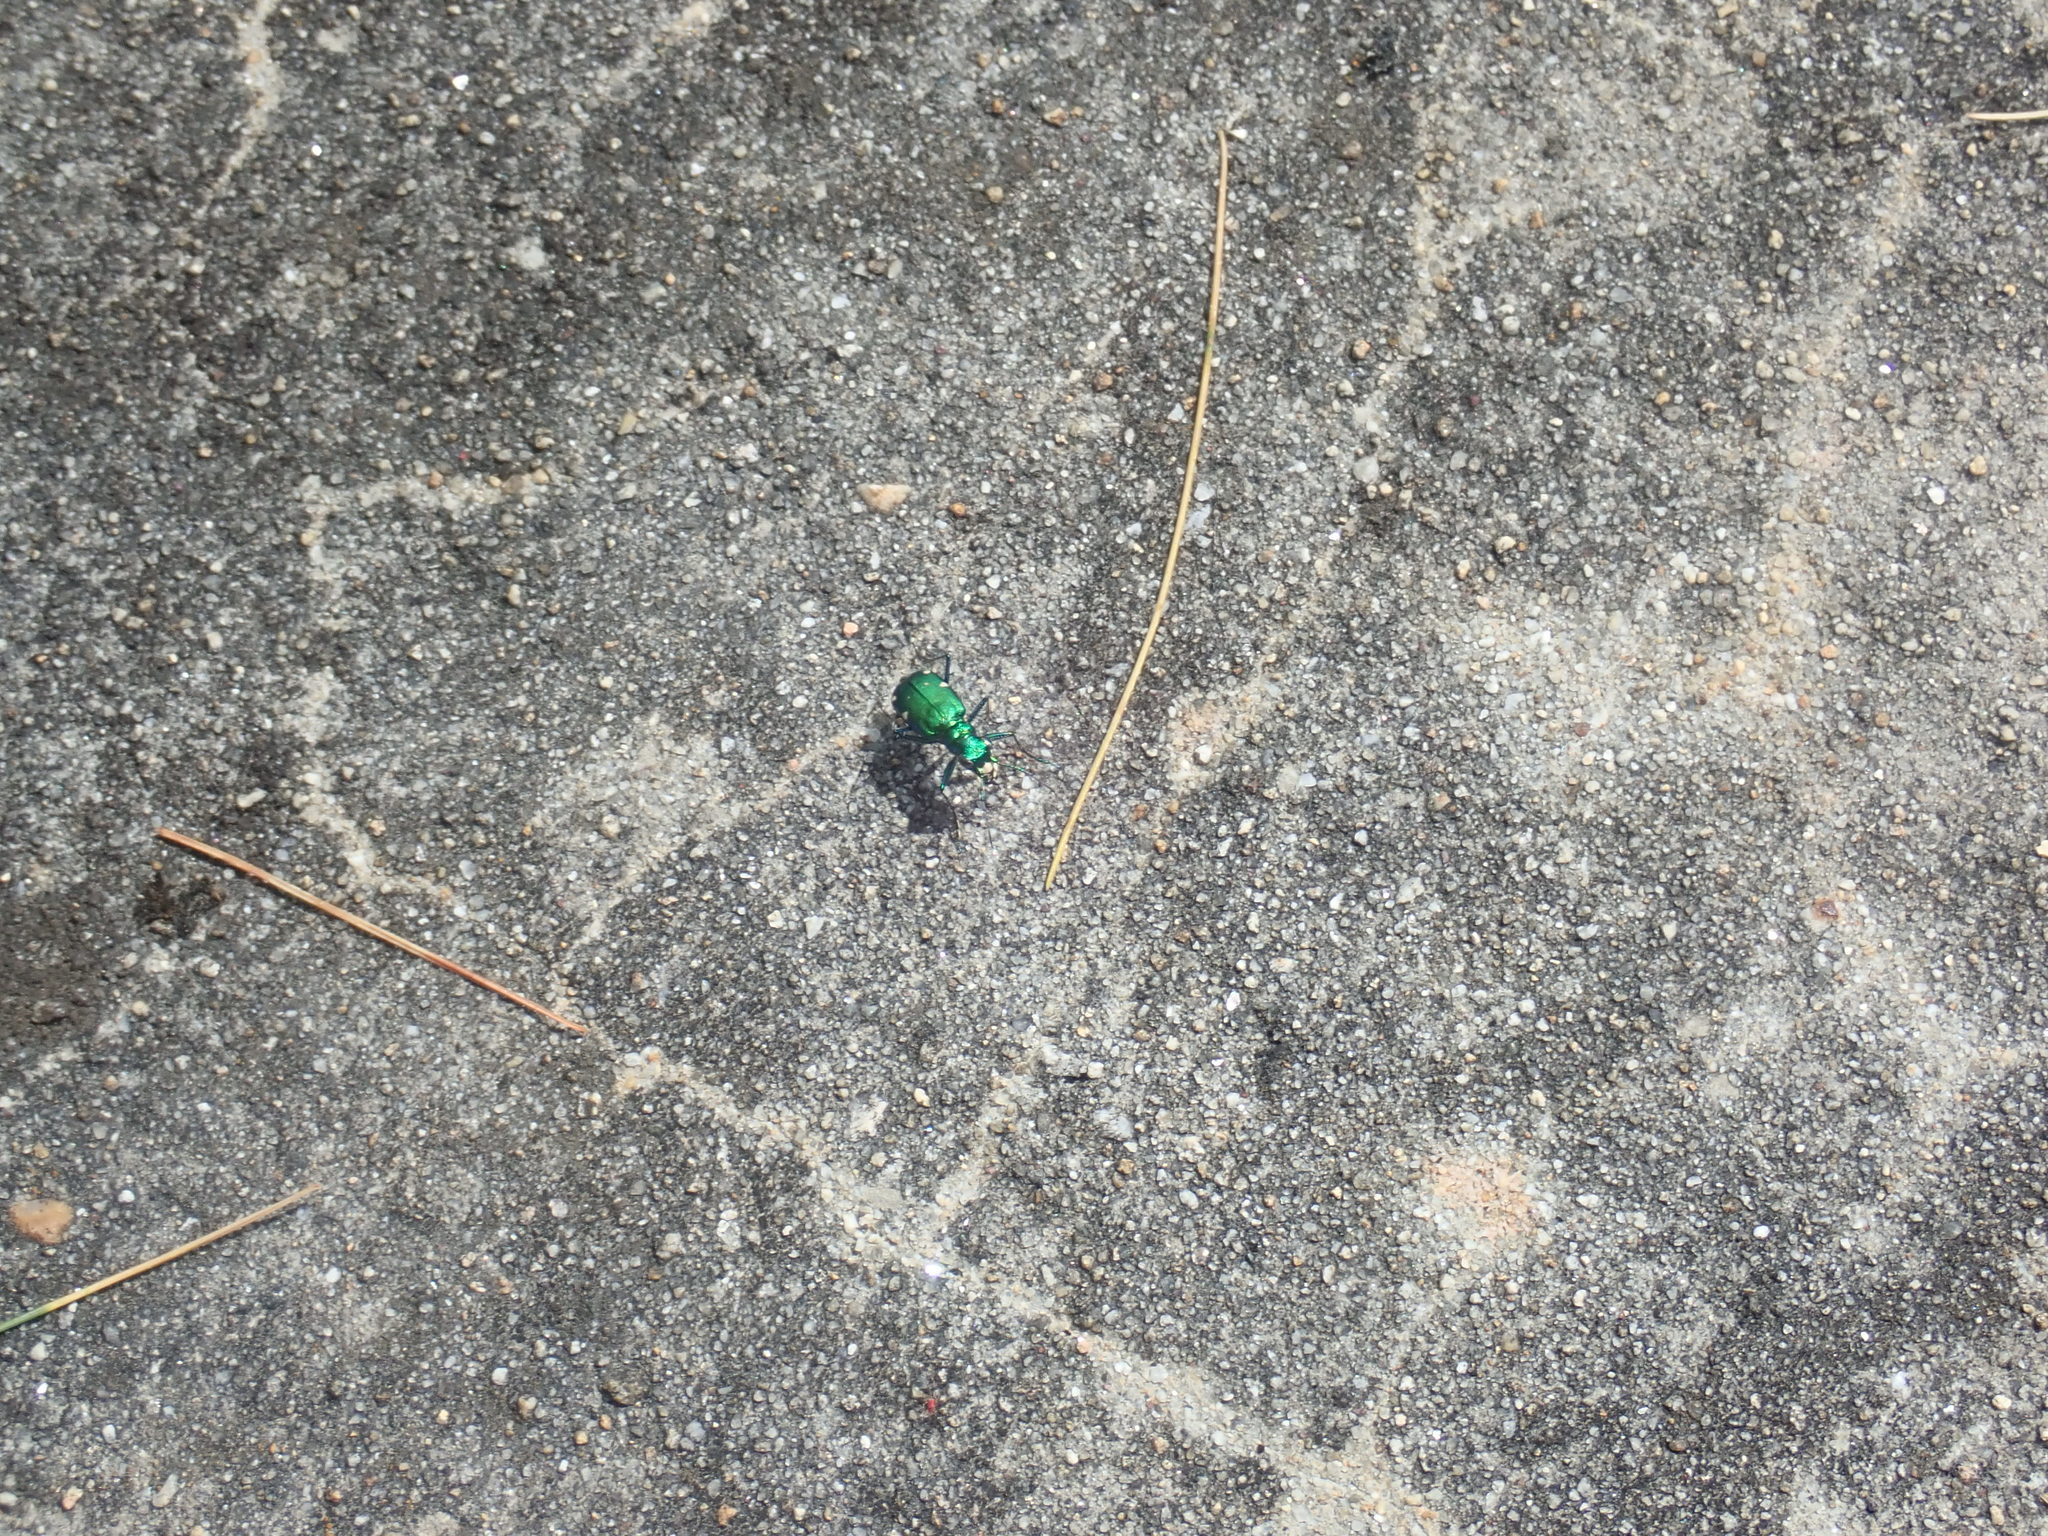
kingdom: Animalia
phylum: Arthropoda
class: Insecta
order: Coleoptera
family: Carabidae
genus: Cicindela
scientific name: Cicindela sexguttata
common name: Six-spotted tiger beetle
